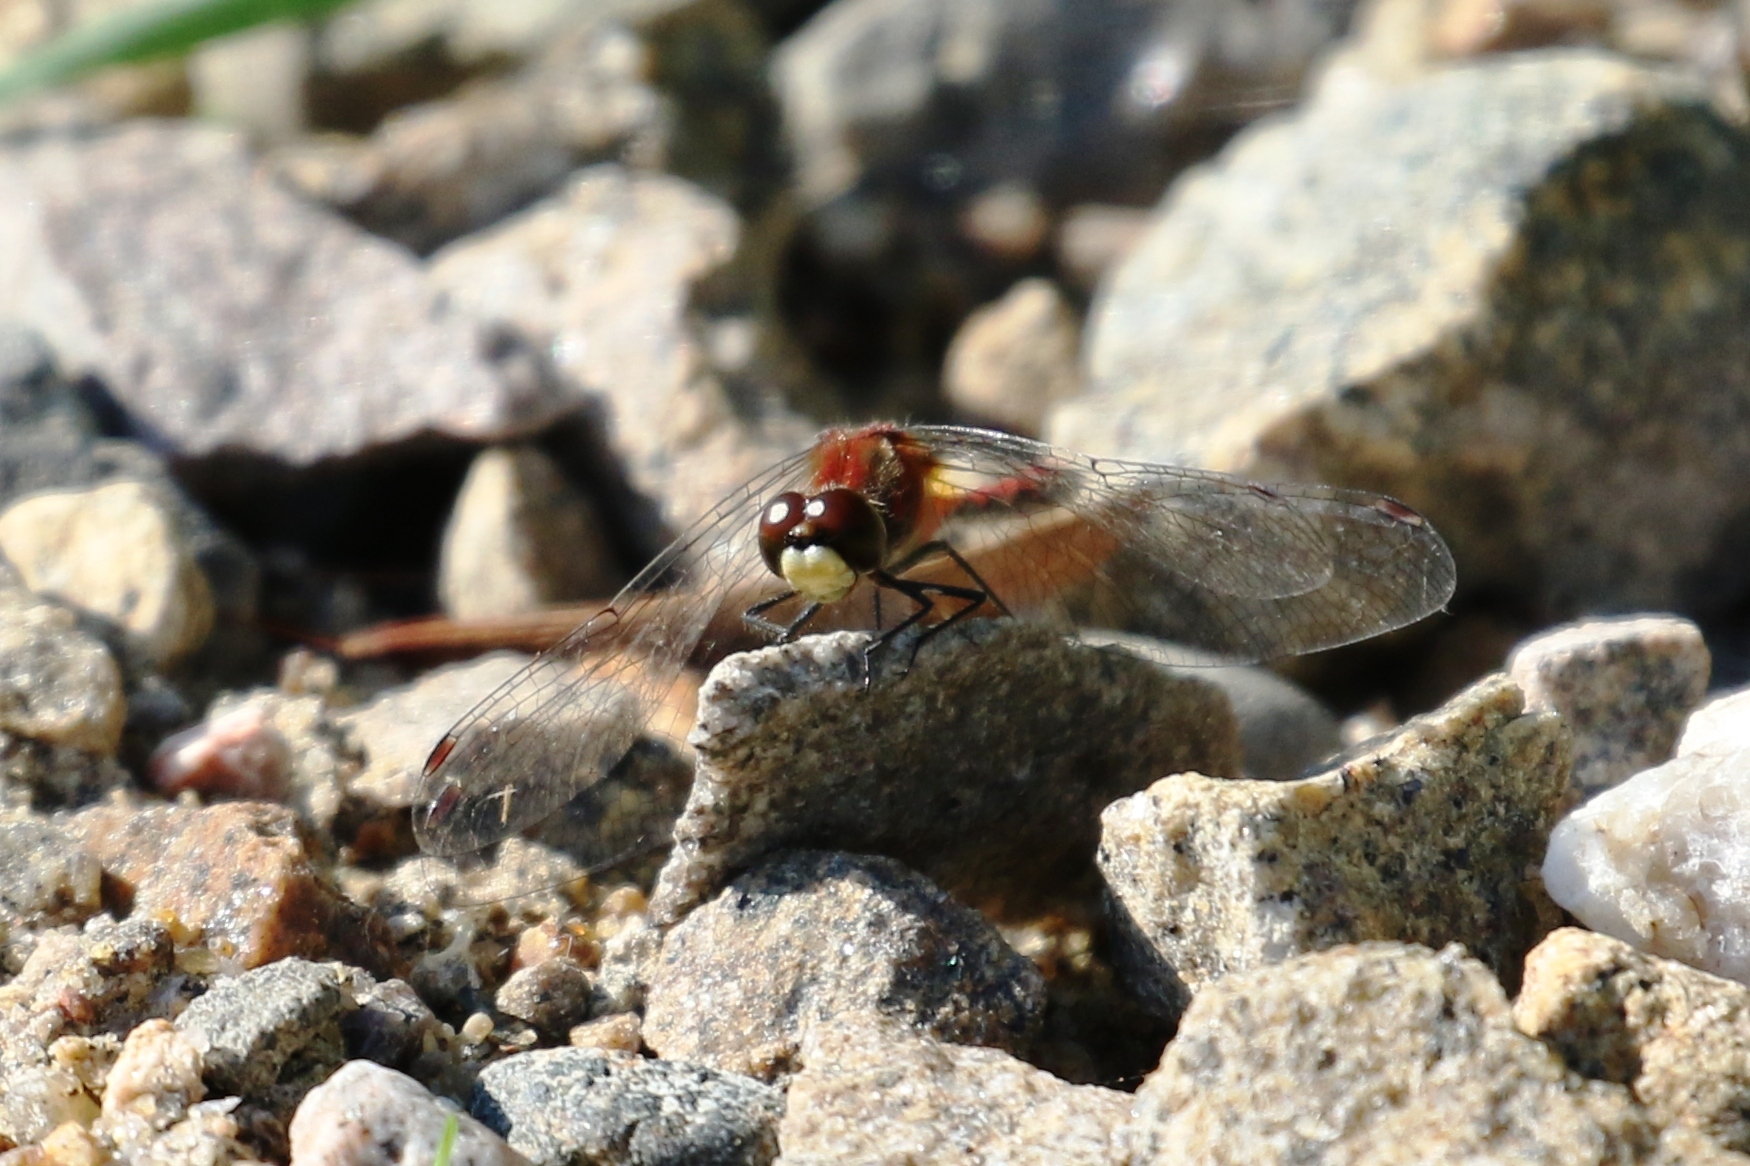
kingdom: Animalia
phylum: Arthropoda
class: Insecta
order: Odonata
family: Libellulidae
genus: Sympetrum
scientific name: Sympetrum obtrusum
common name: White-faced meadowhawk
